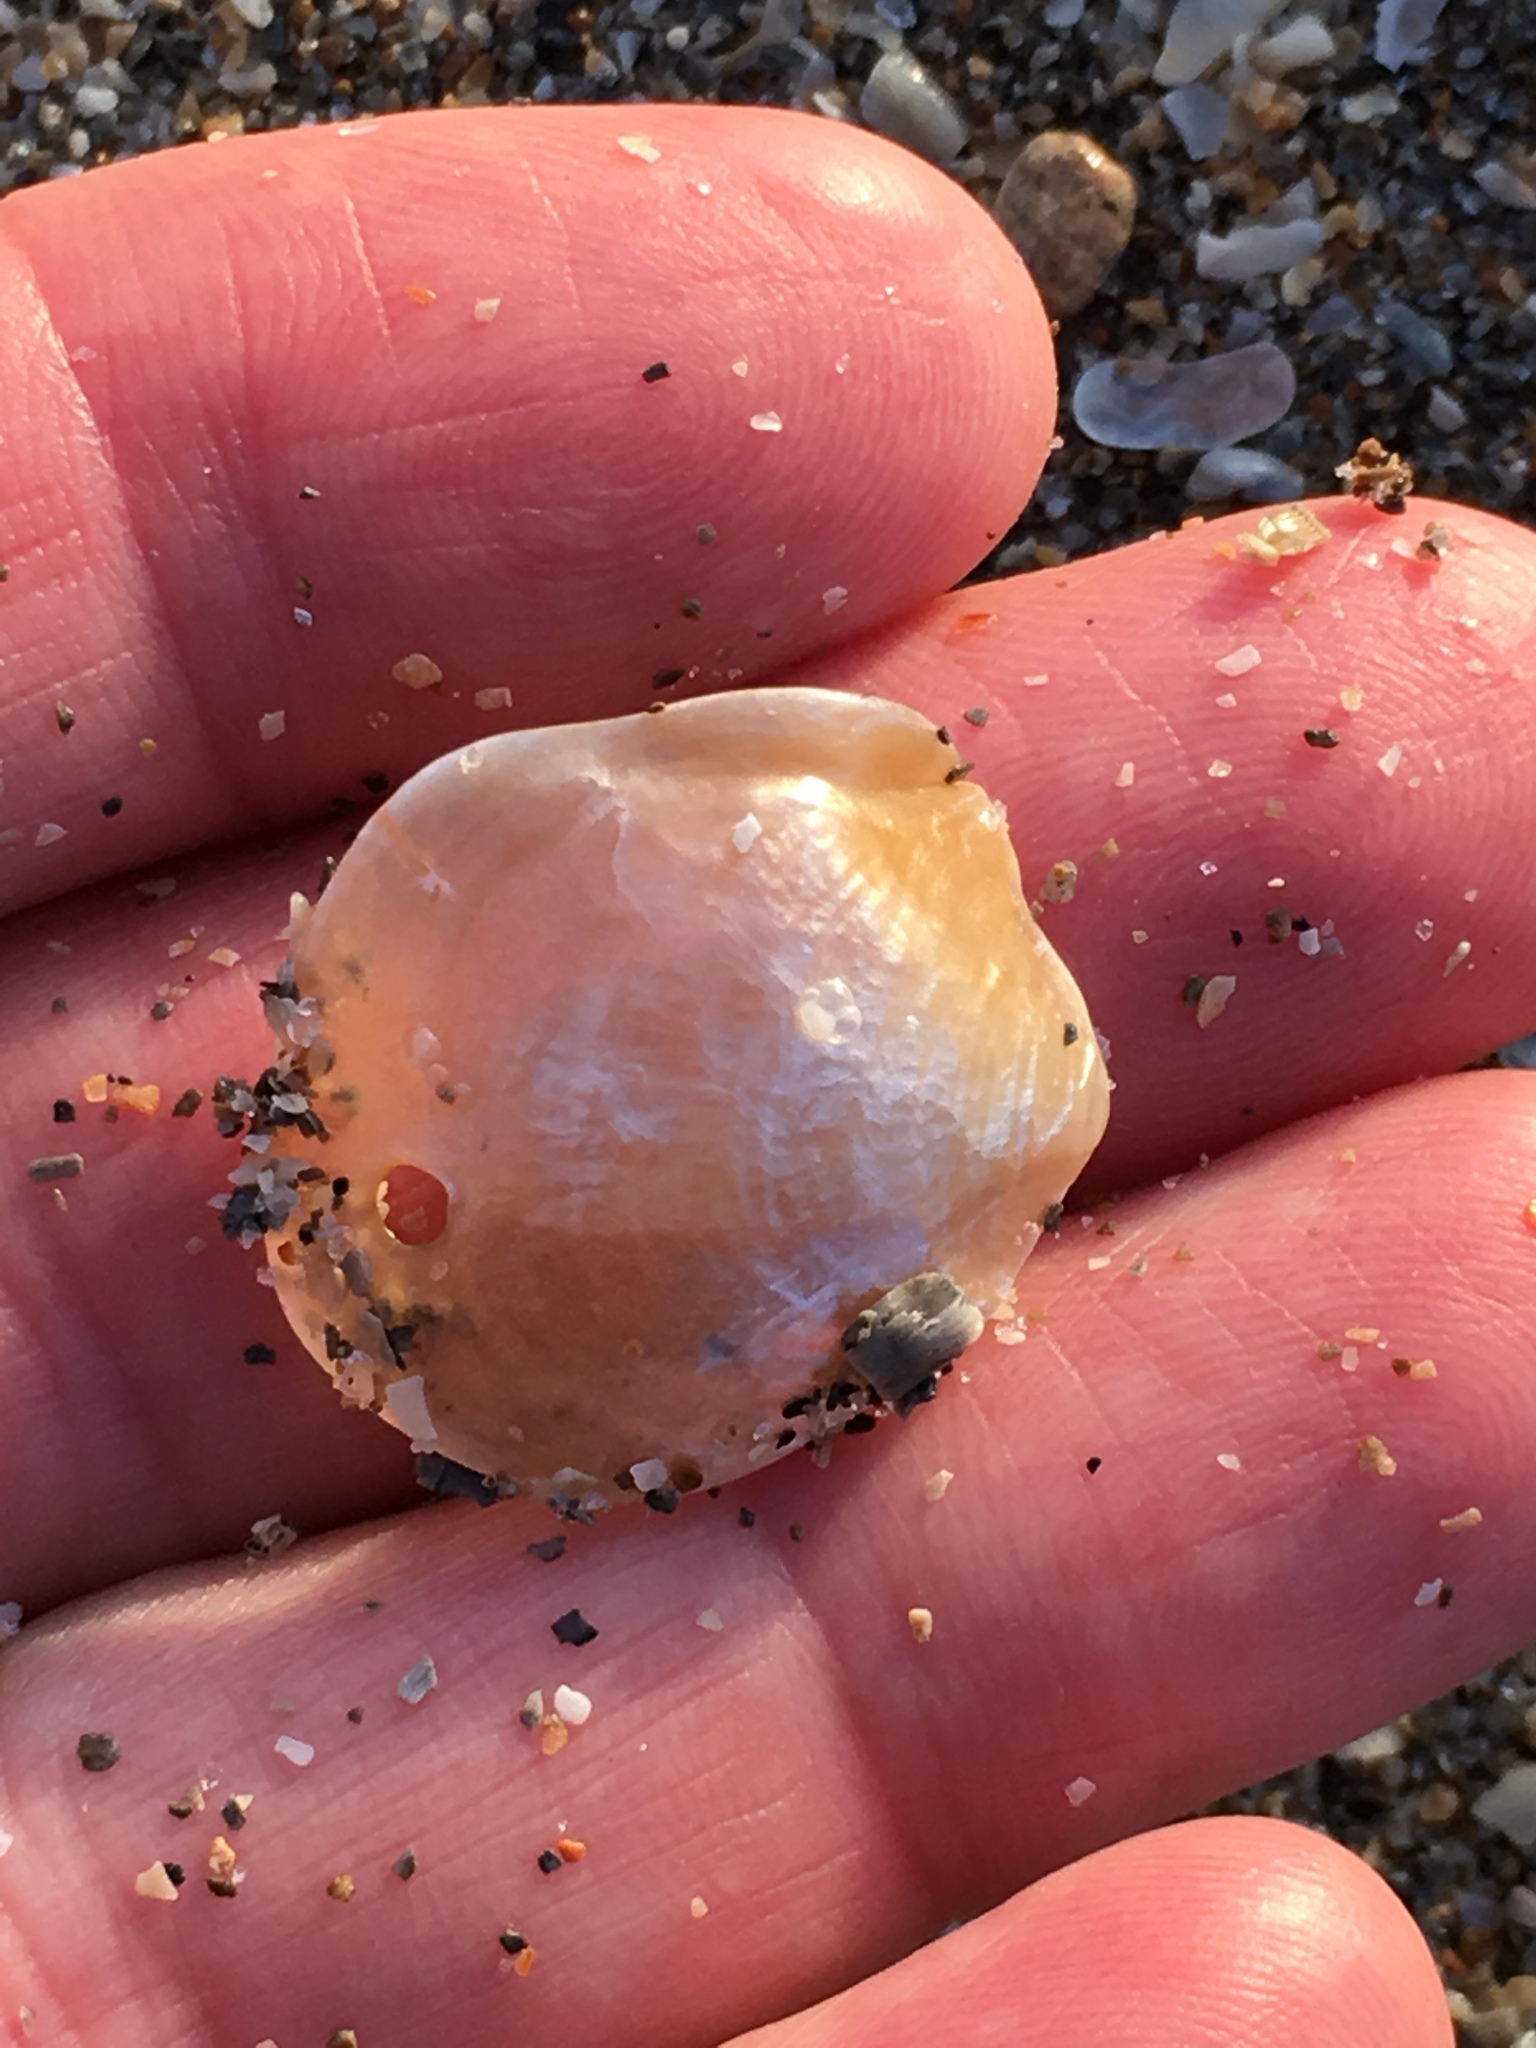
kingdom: Animalia
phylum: Mollusca
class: Bivalvia
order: Pectinida
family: Anomiidae
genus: Anomia
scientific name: Anomia simplex
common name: Common jingle shell
